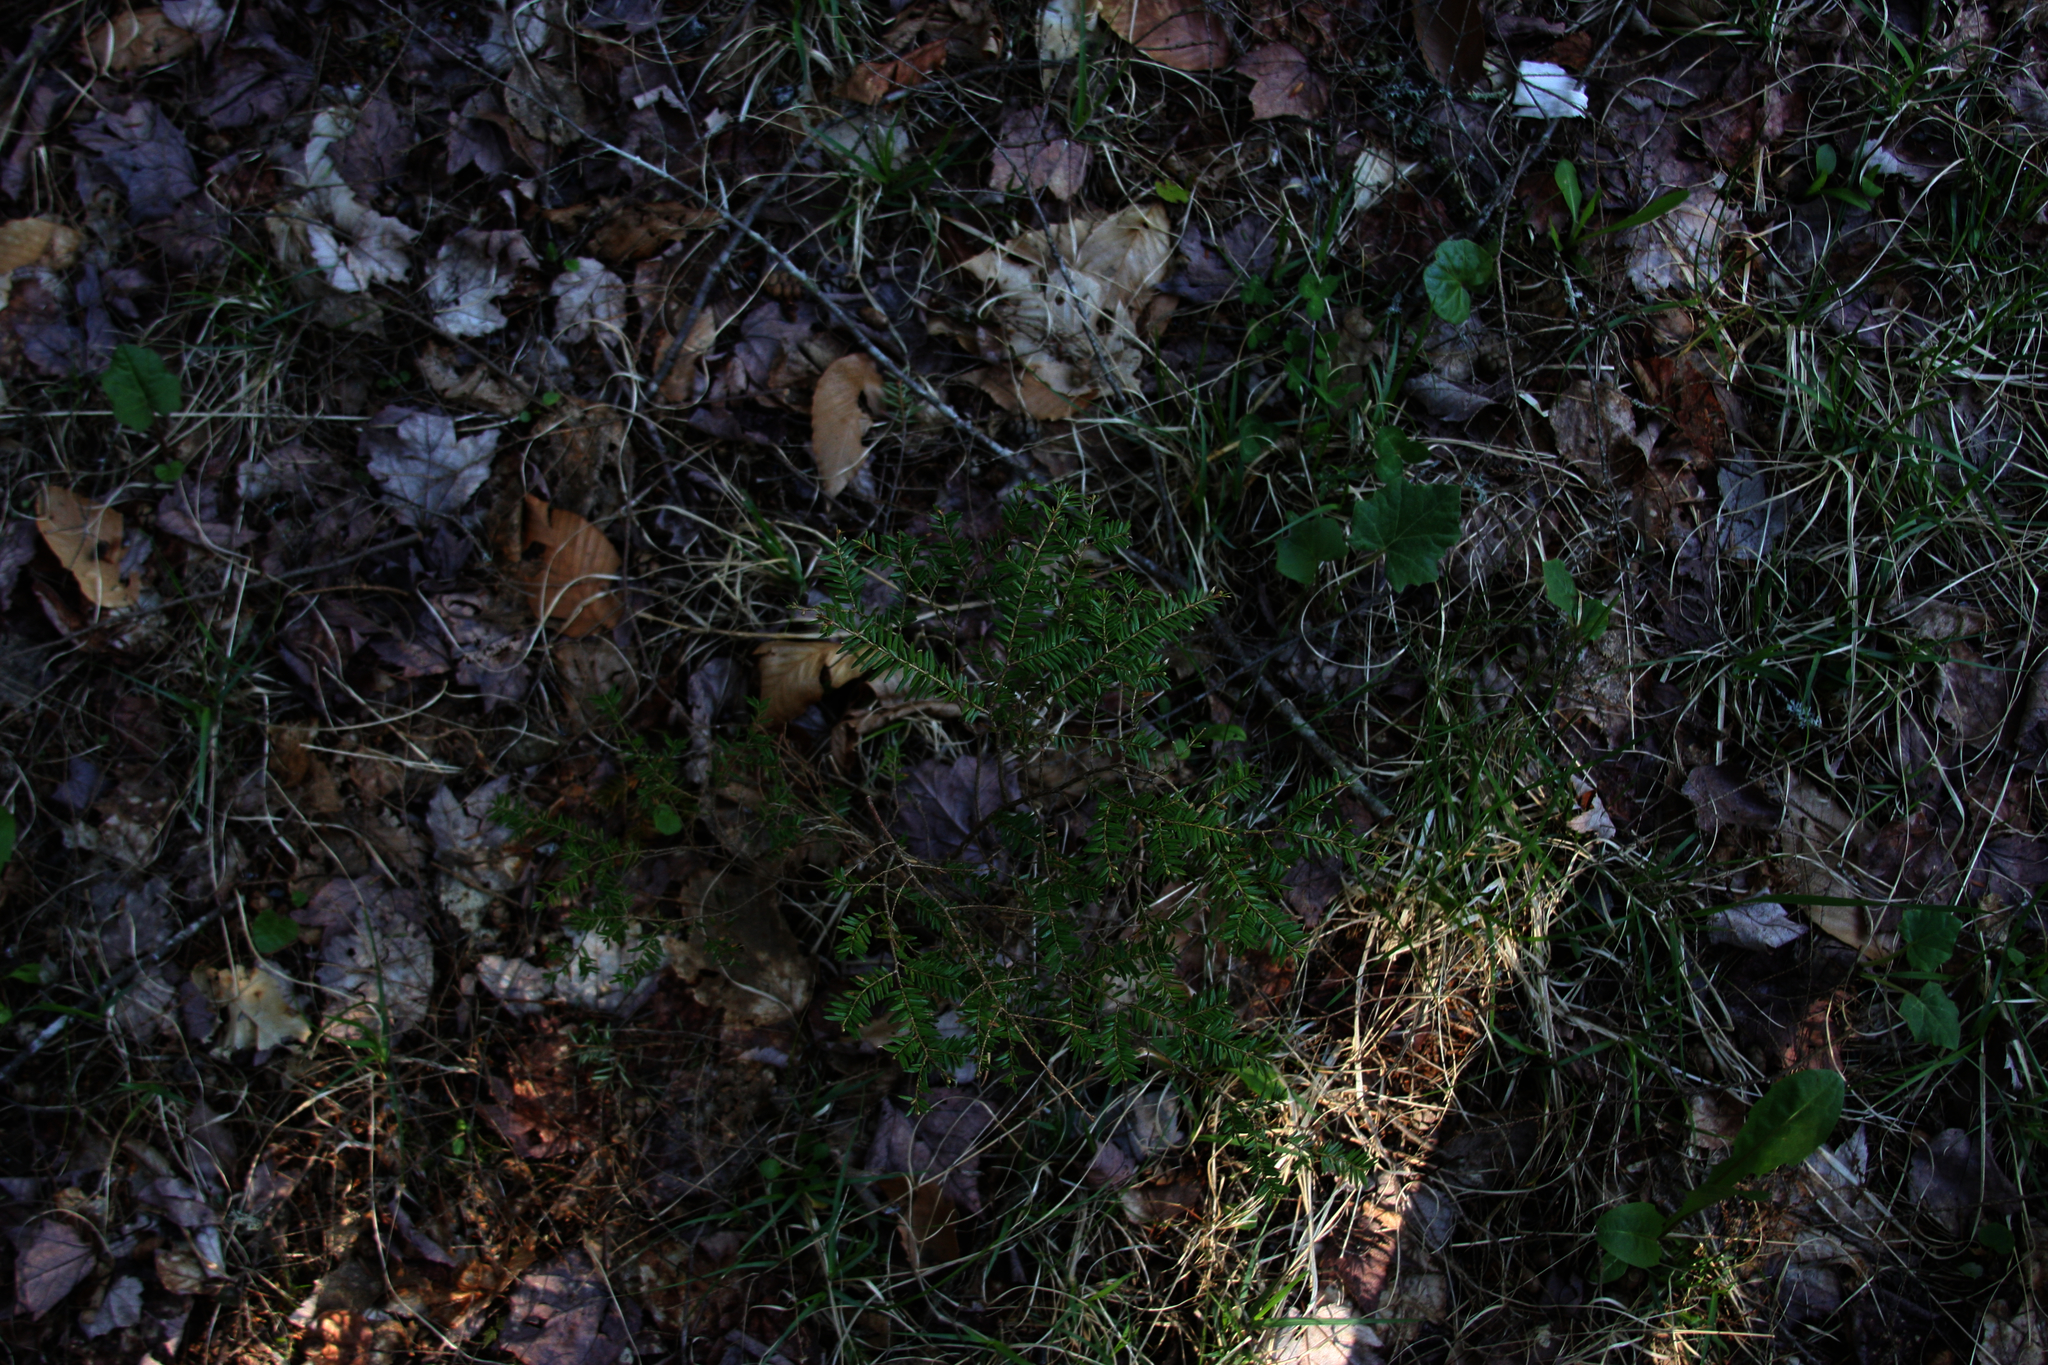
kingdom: Plantae
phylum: Tracheophyta
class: Pinopsida
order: Pinales
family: Pinaceae
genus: Tsuga
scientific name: Tsuga canadensis
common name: Eastern hemlock
